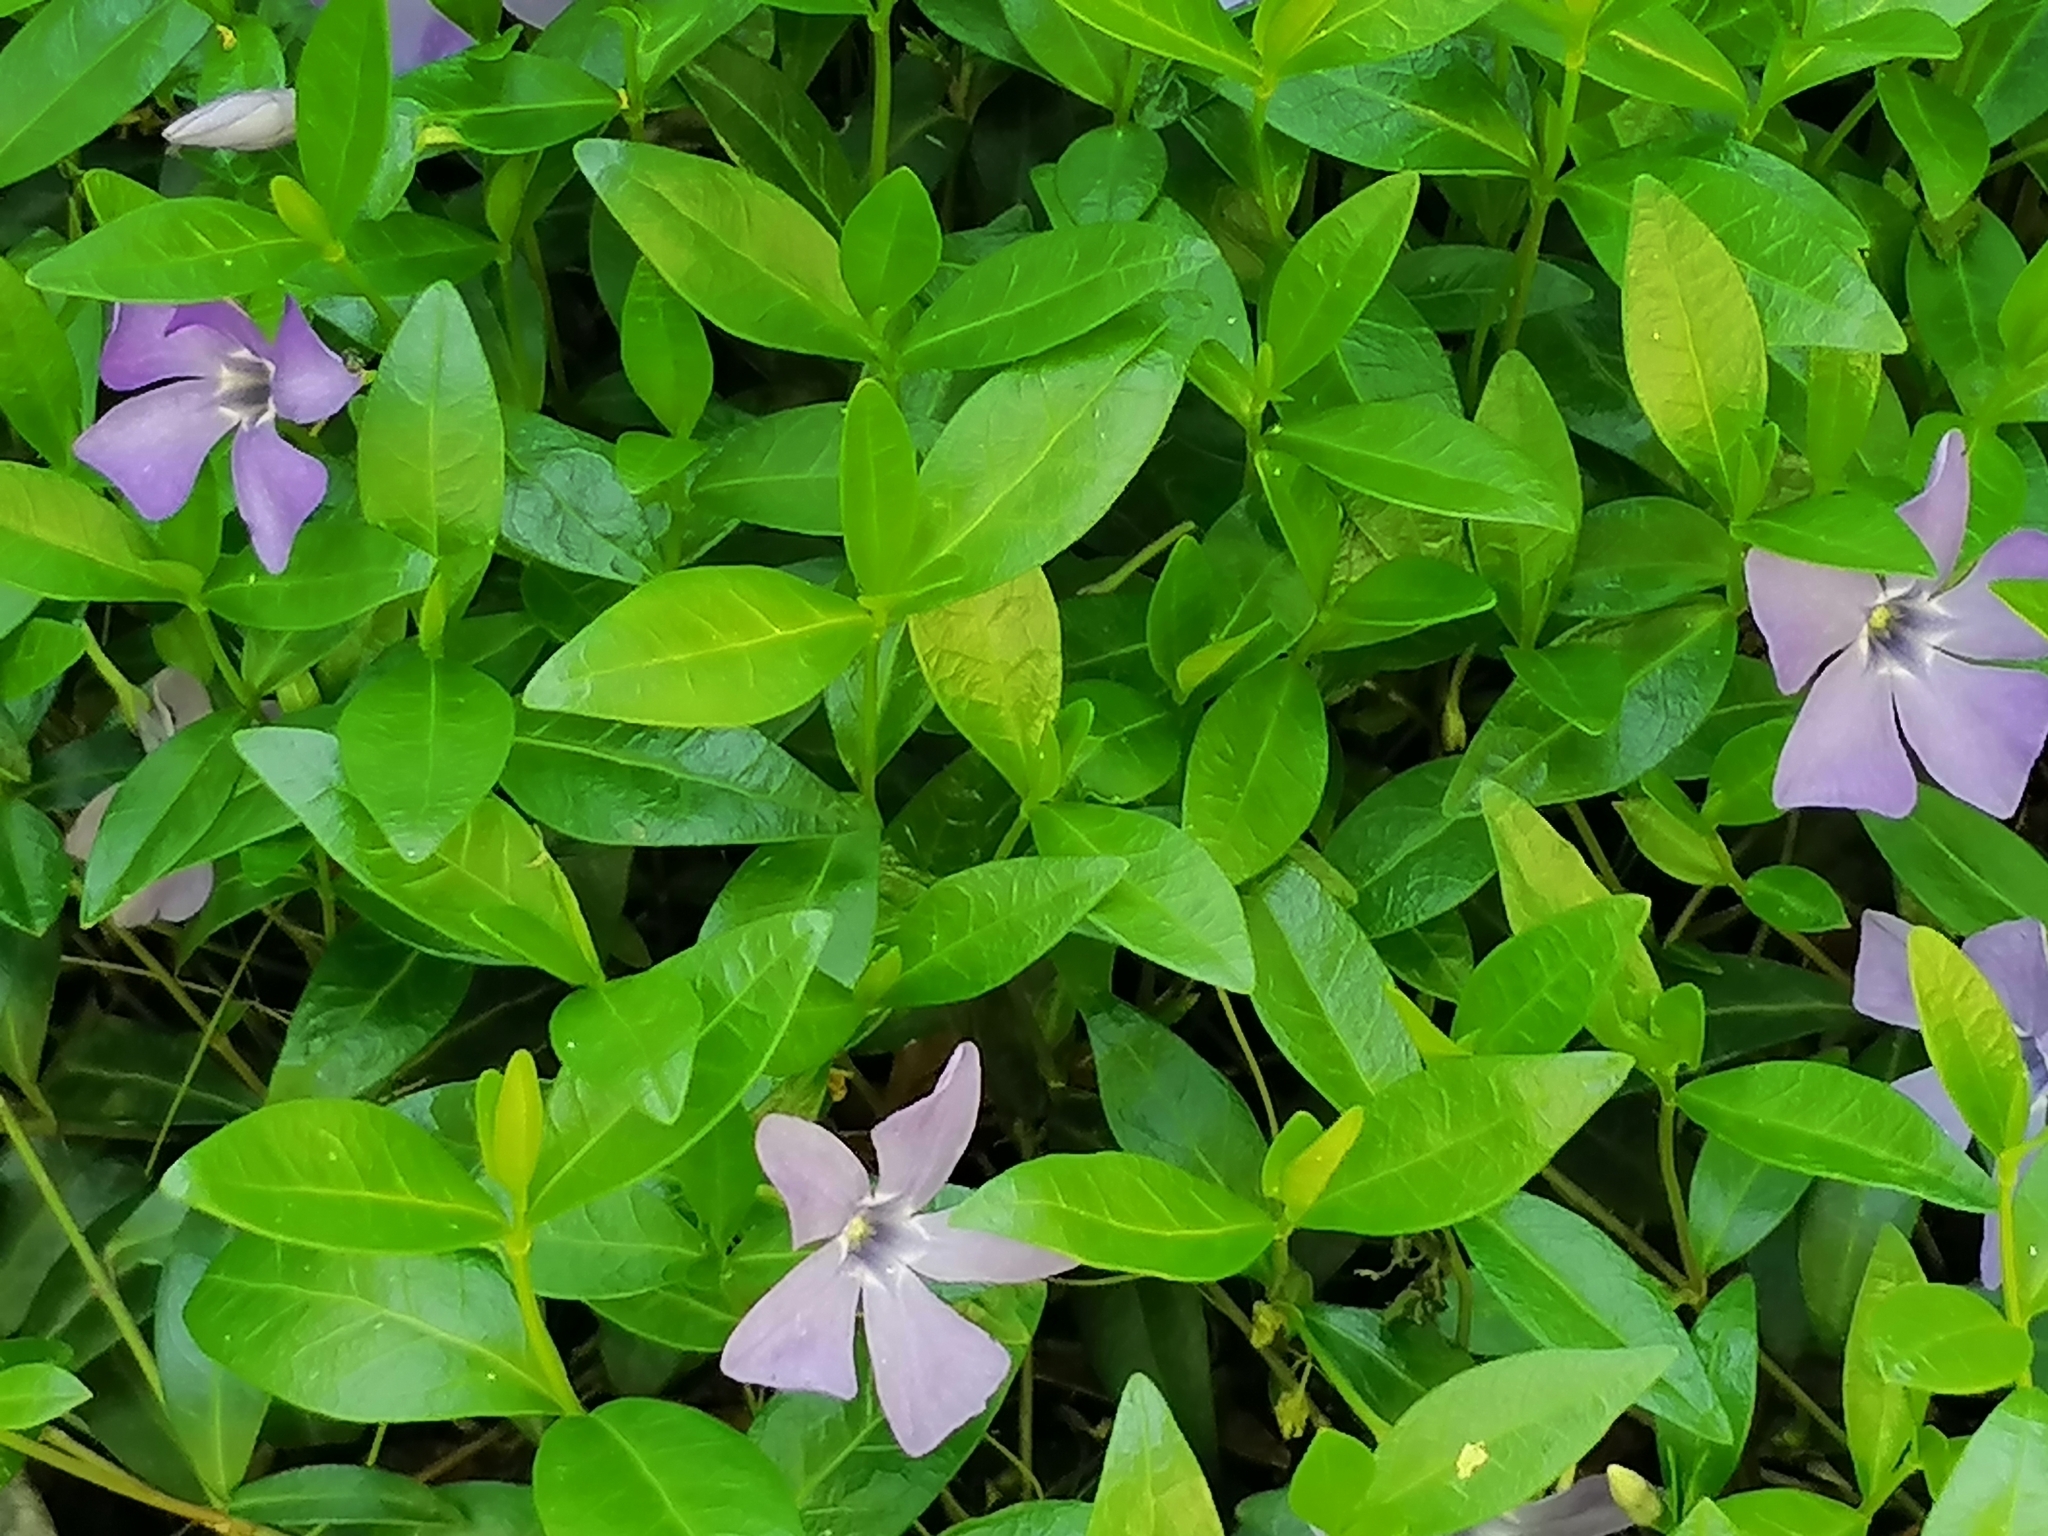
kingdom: Plantae
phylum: Tracheophyta
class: Magnoliopsida
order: Gentianales
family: Apocynaceae
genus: Vinca
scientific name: Vinca minor
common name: Lesser periwinkle
